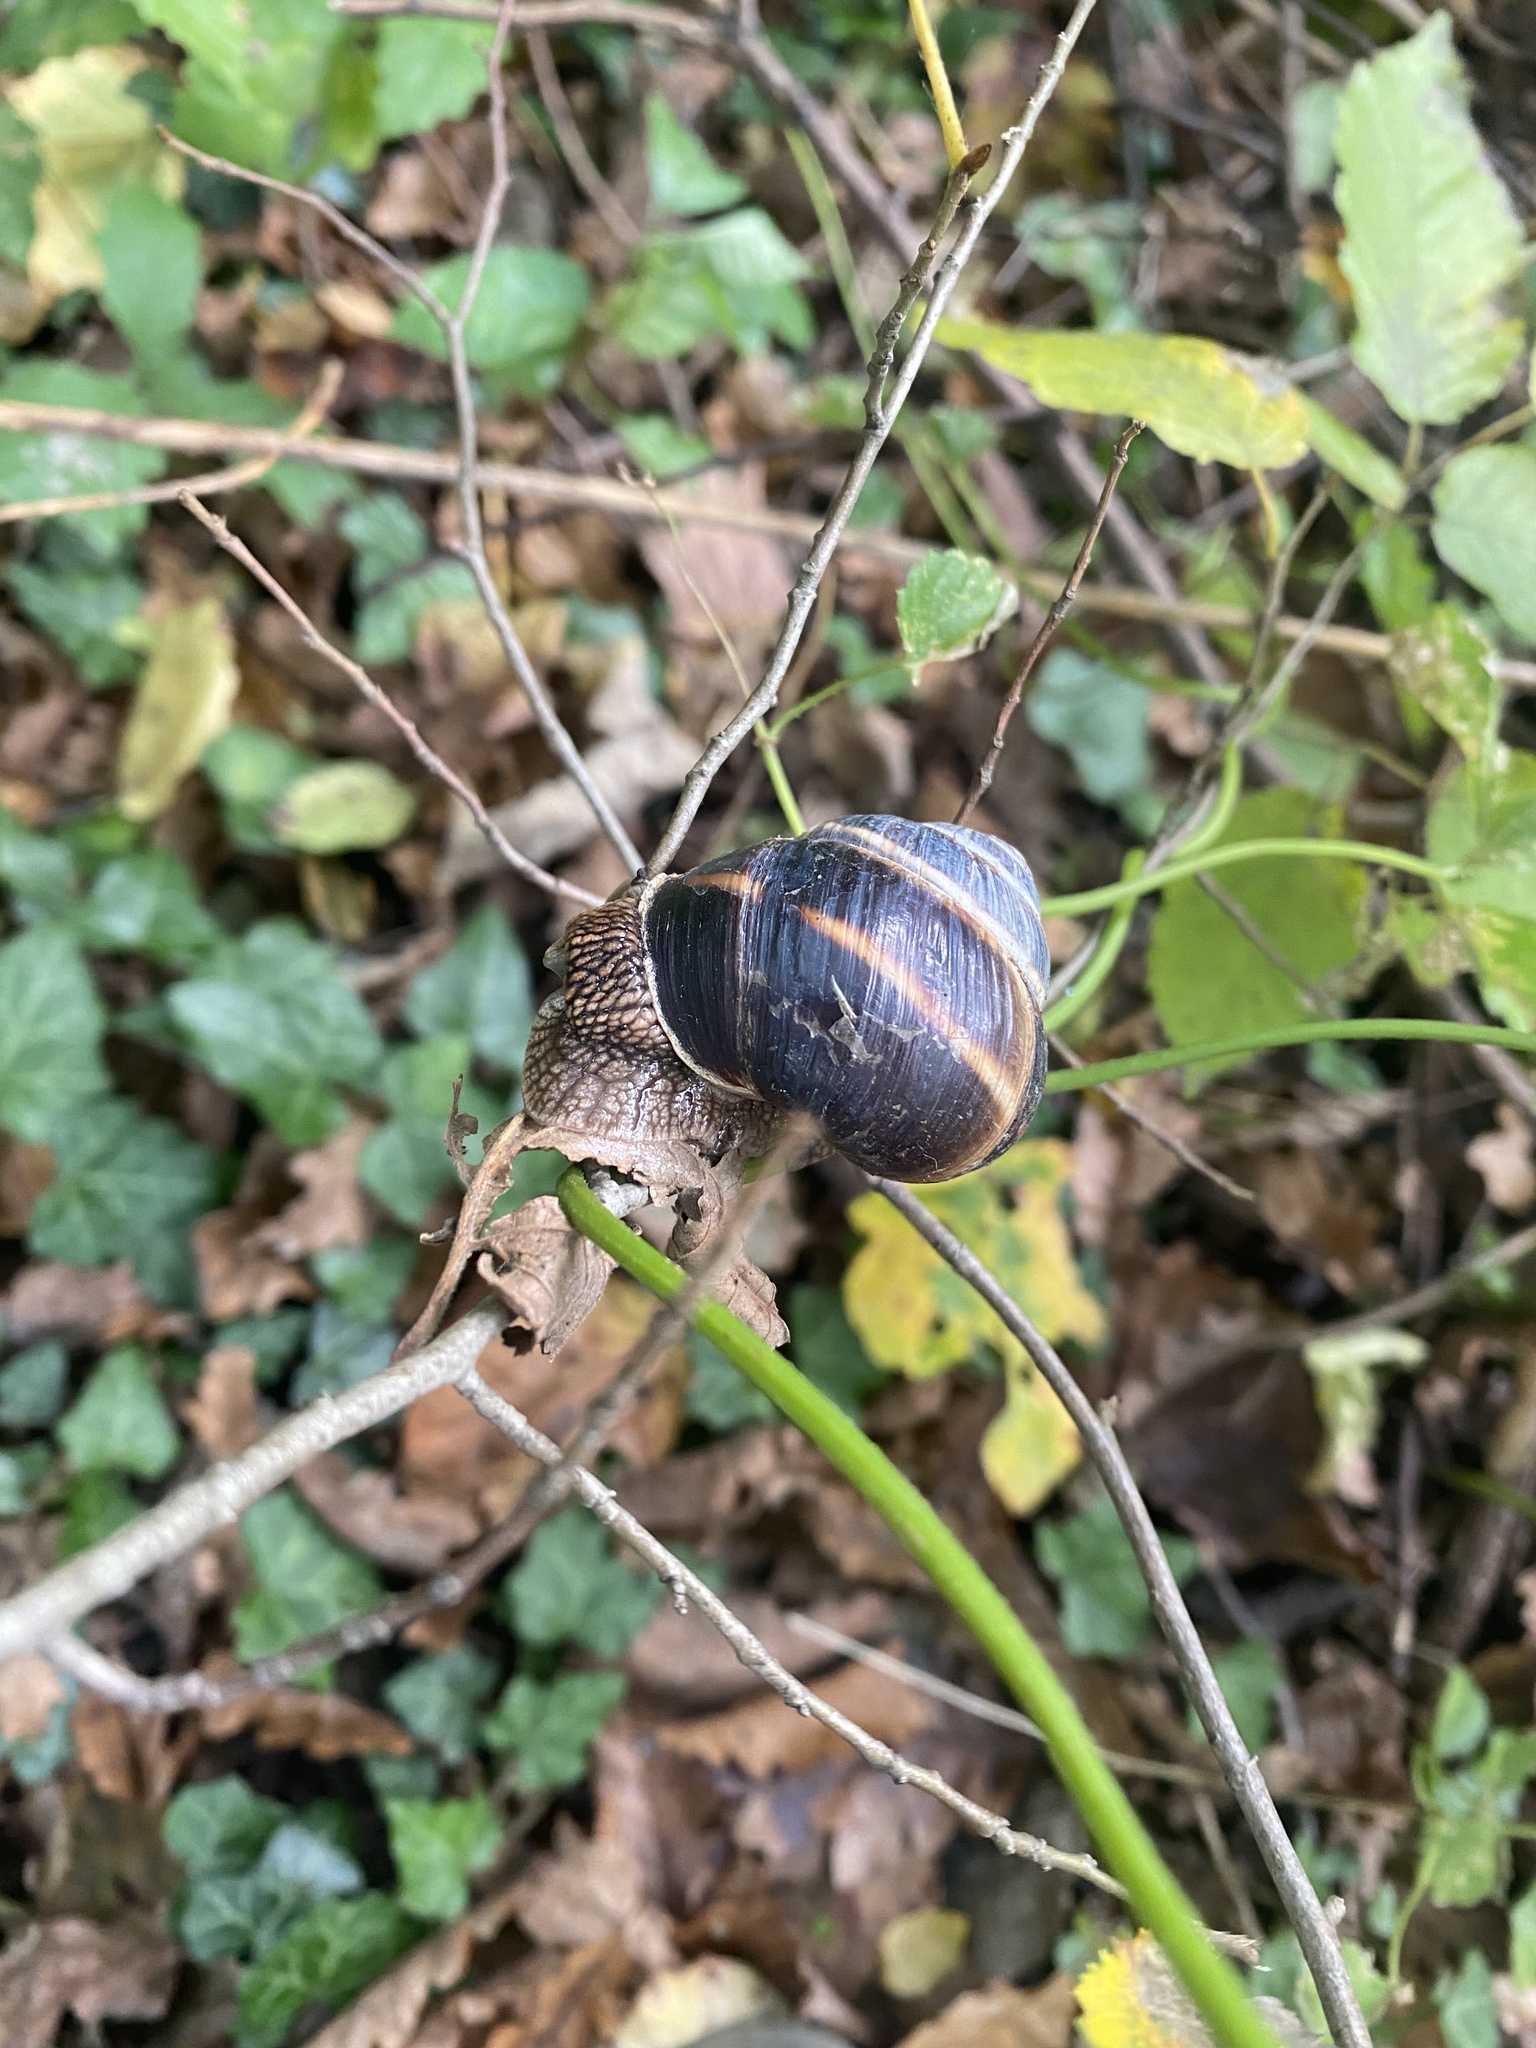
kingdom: Animalia
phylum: Mollusca
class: Gastropoda
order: Stylommatophora
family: Helicidae
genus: Helix
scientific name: Helix lucorum
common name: Turkish snail
